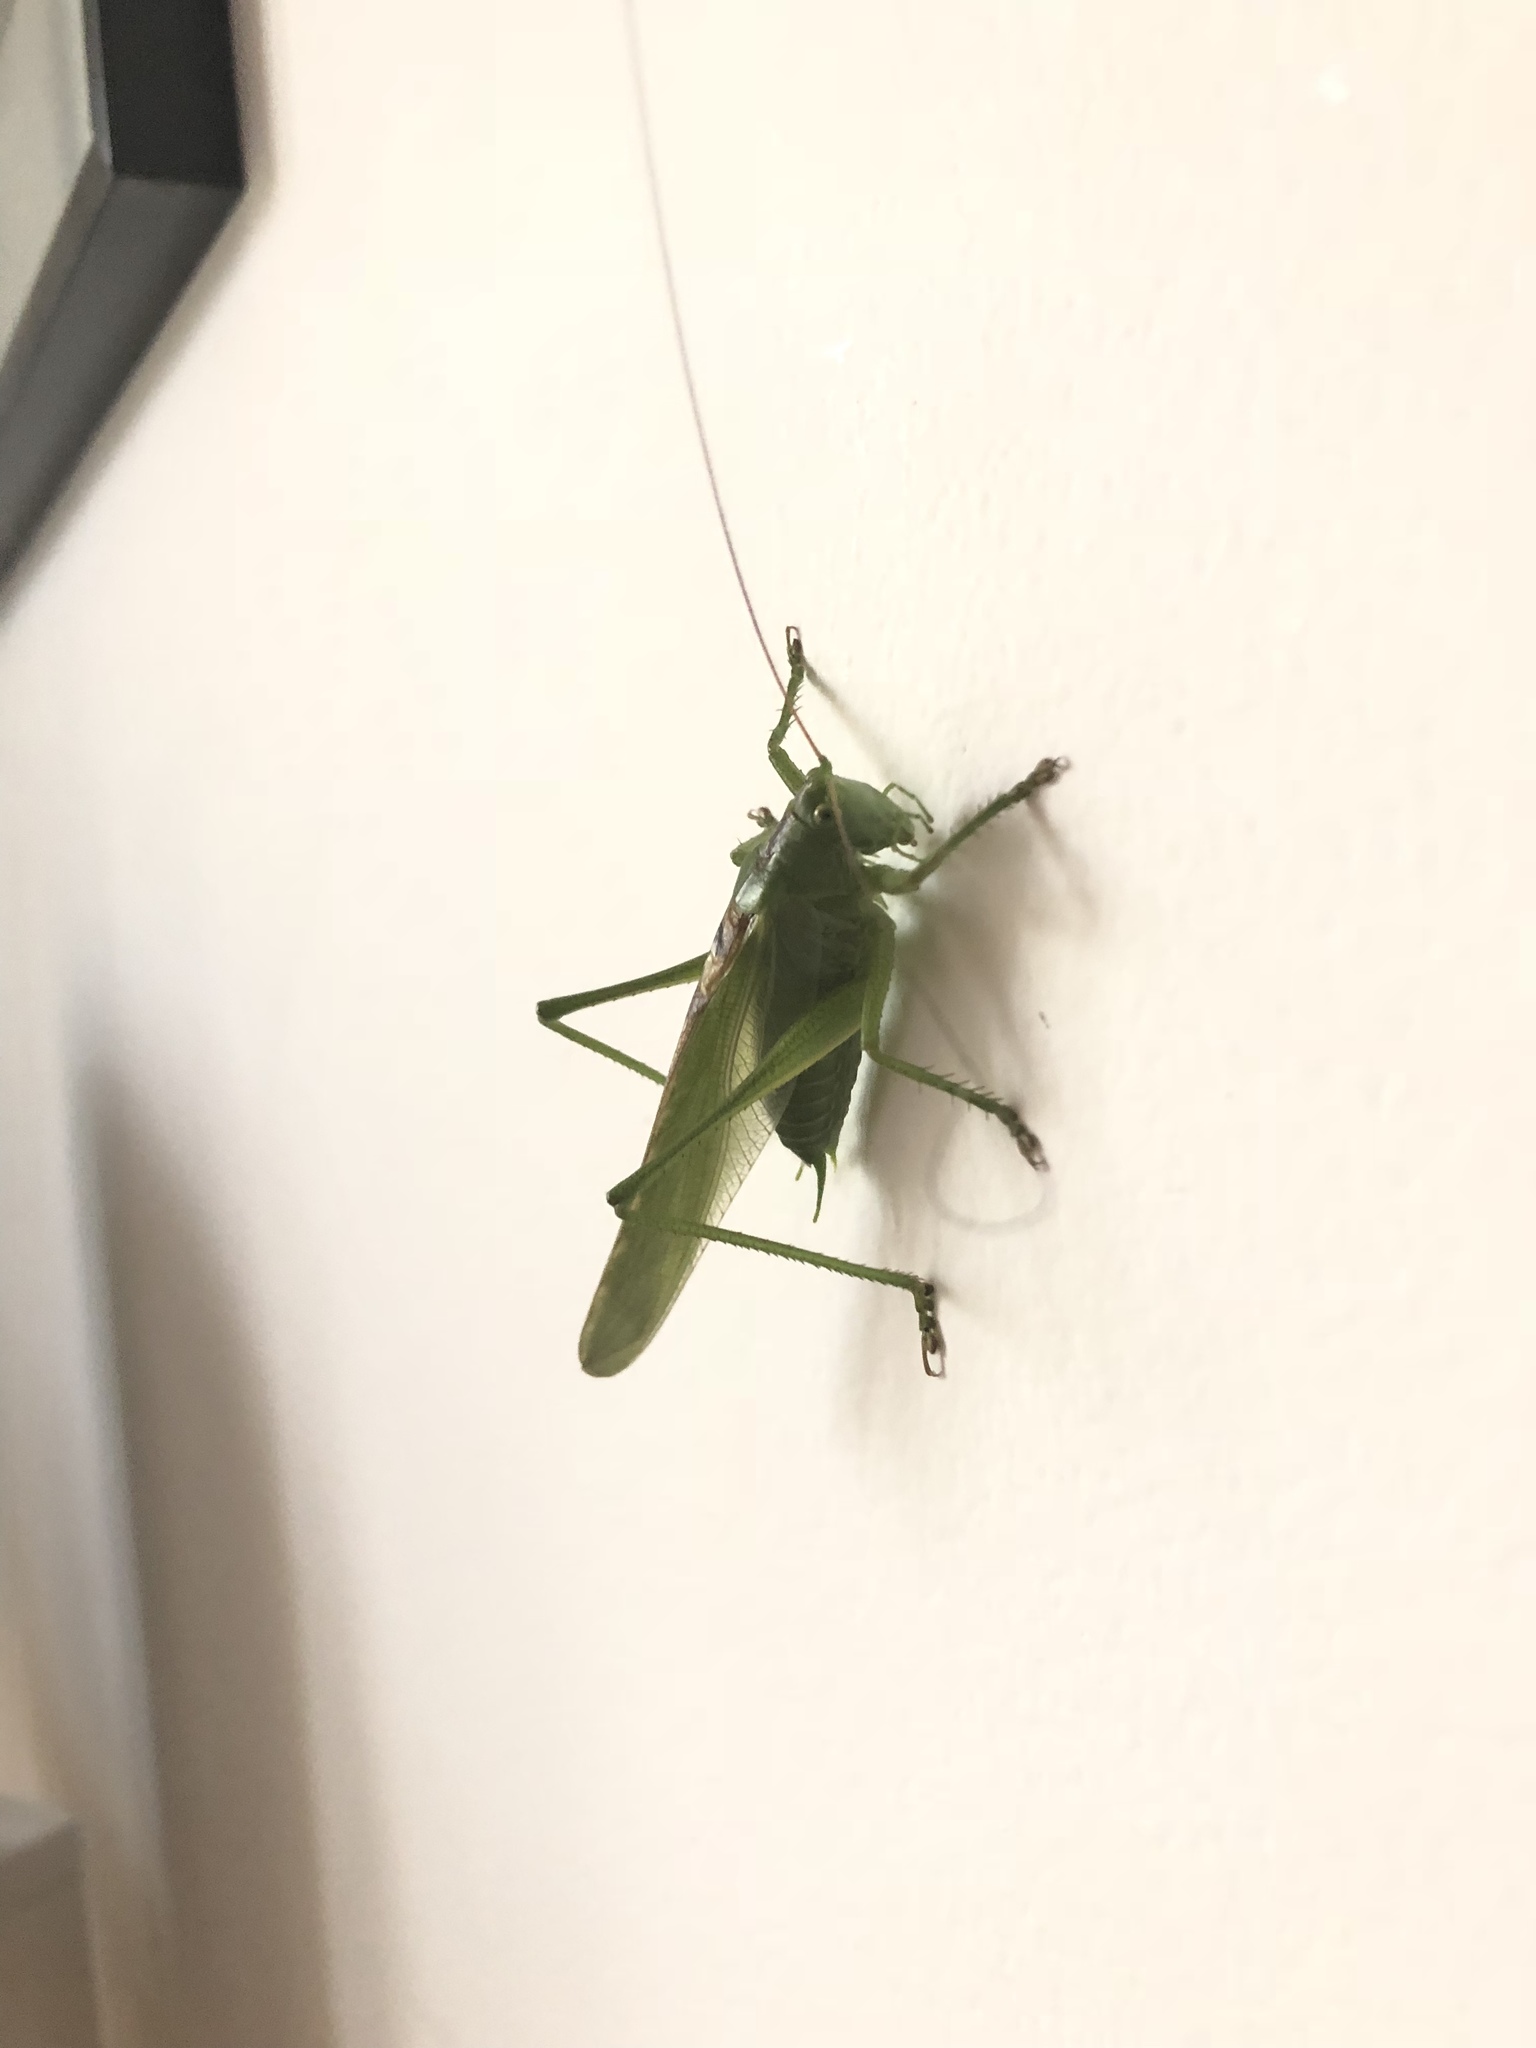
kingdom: Animalia
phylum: Arthropoda
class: Insecta
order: Orthoptera
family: Tettigoniidae
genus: Tettigonia
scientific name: Tettigonia viridissima
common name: Great green bush-cricket
